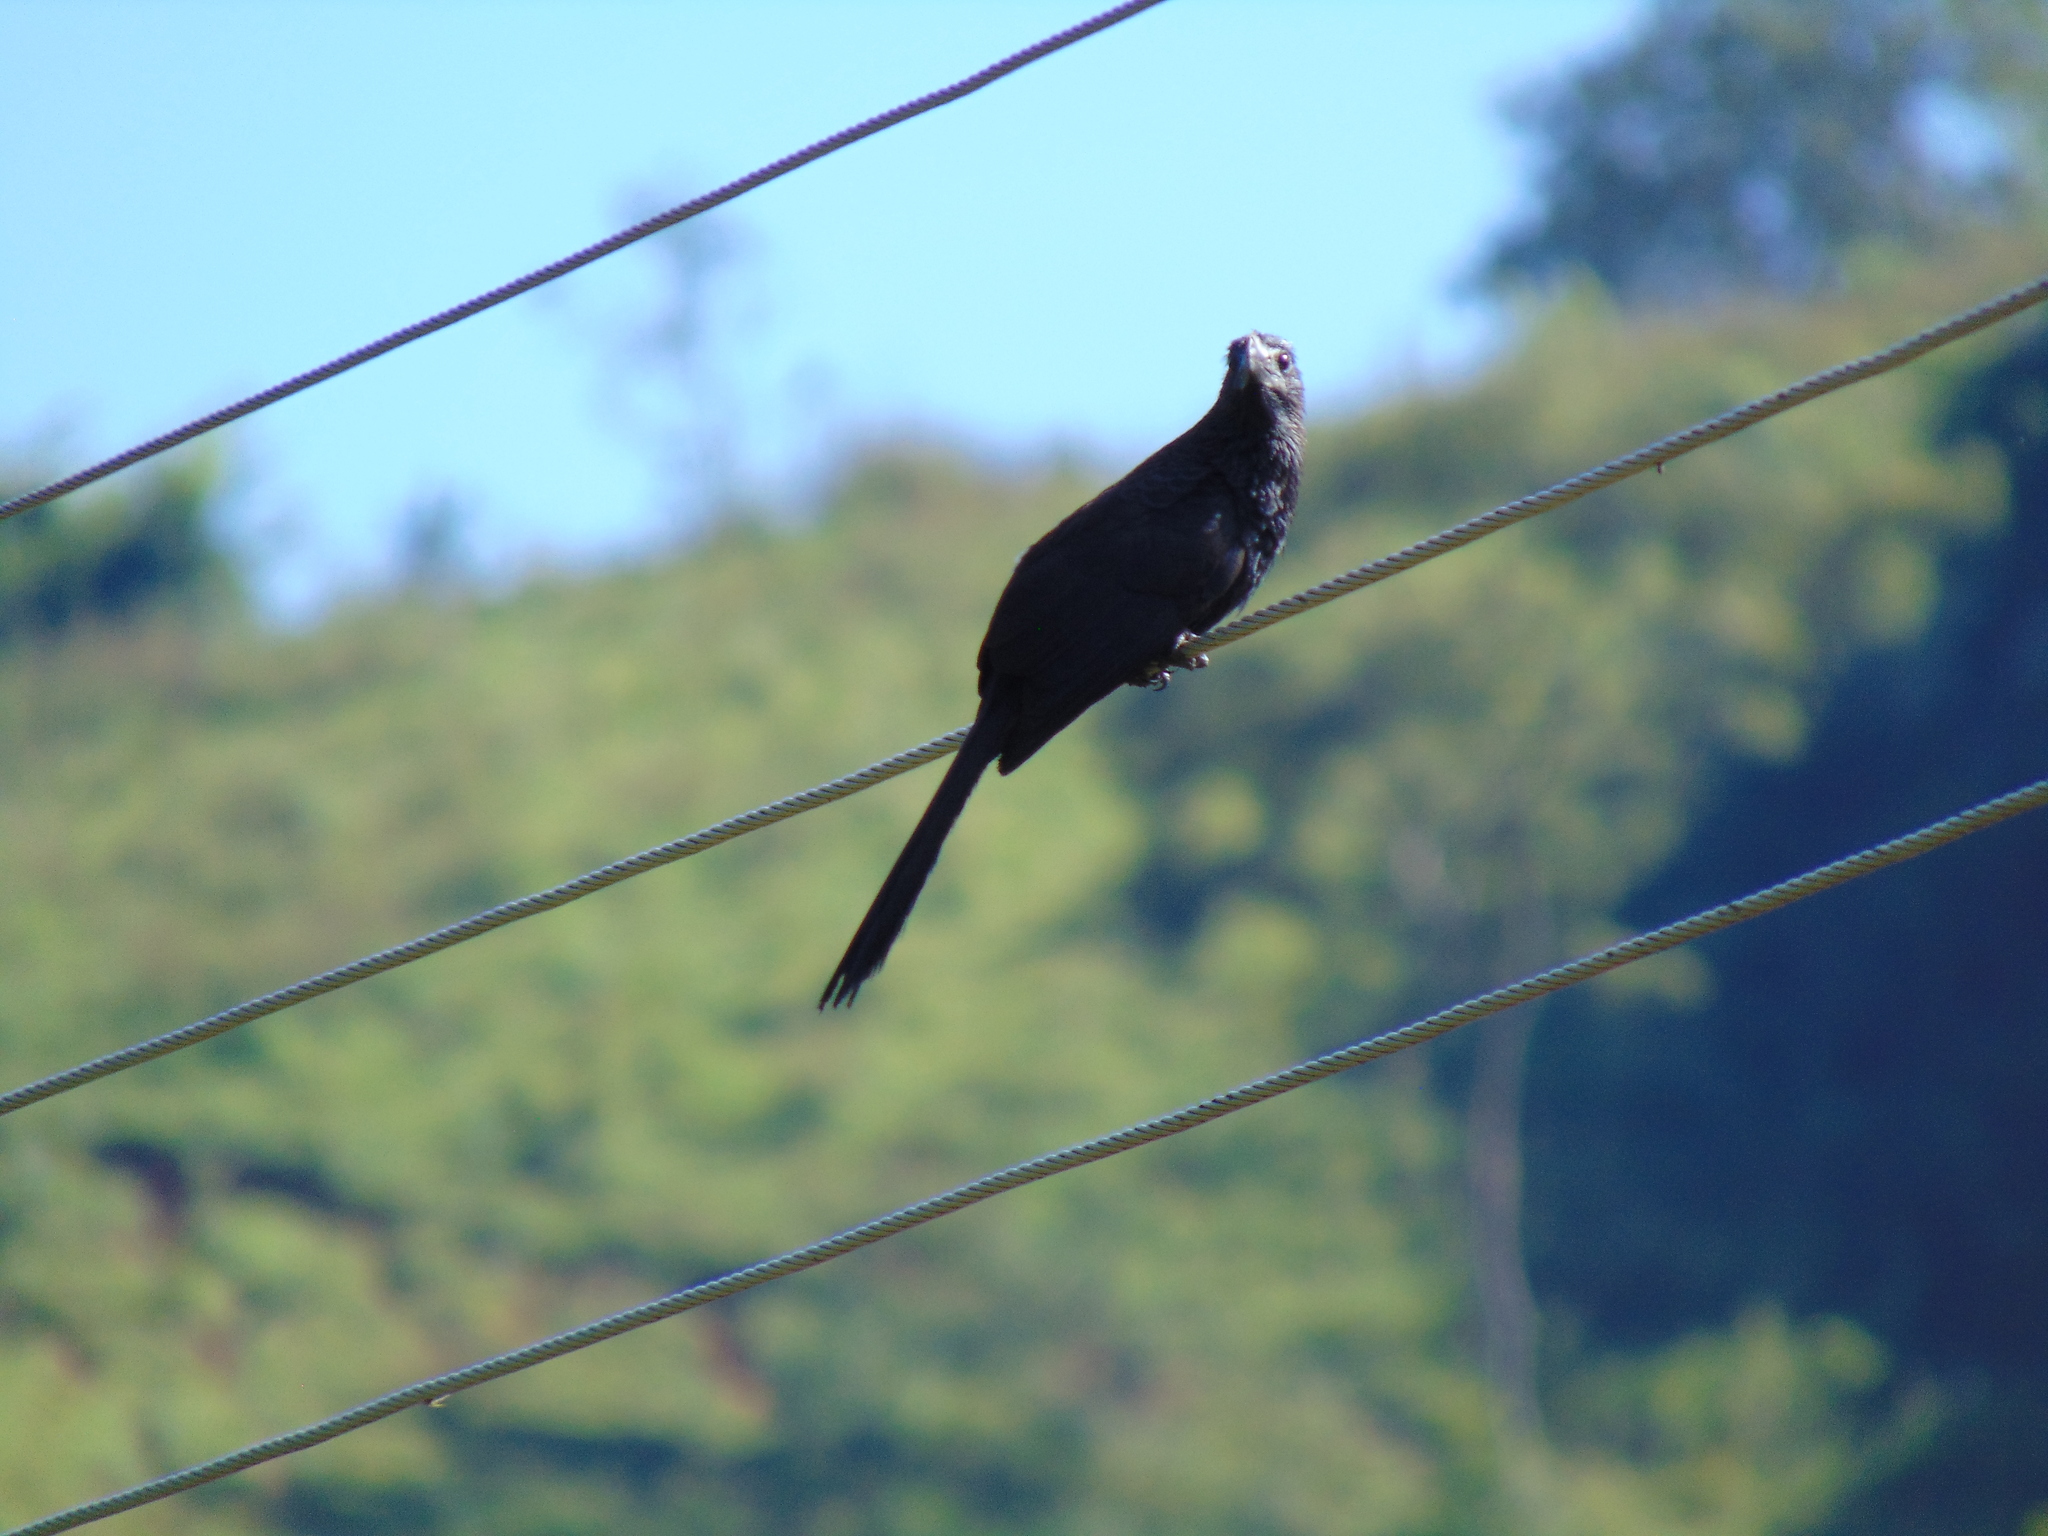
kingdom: Animalia
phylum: Chordata
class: Aves
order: Cuculiformes
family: Cuculidae
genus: Crotophaga
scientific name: Crotophaga ani
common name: Smooth-billed ani
